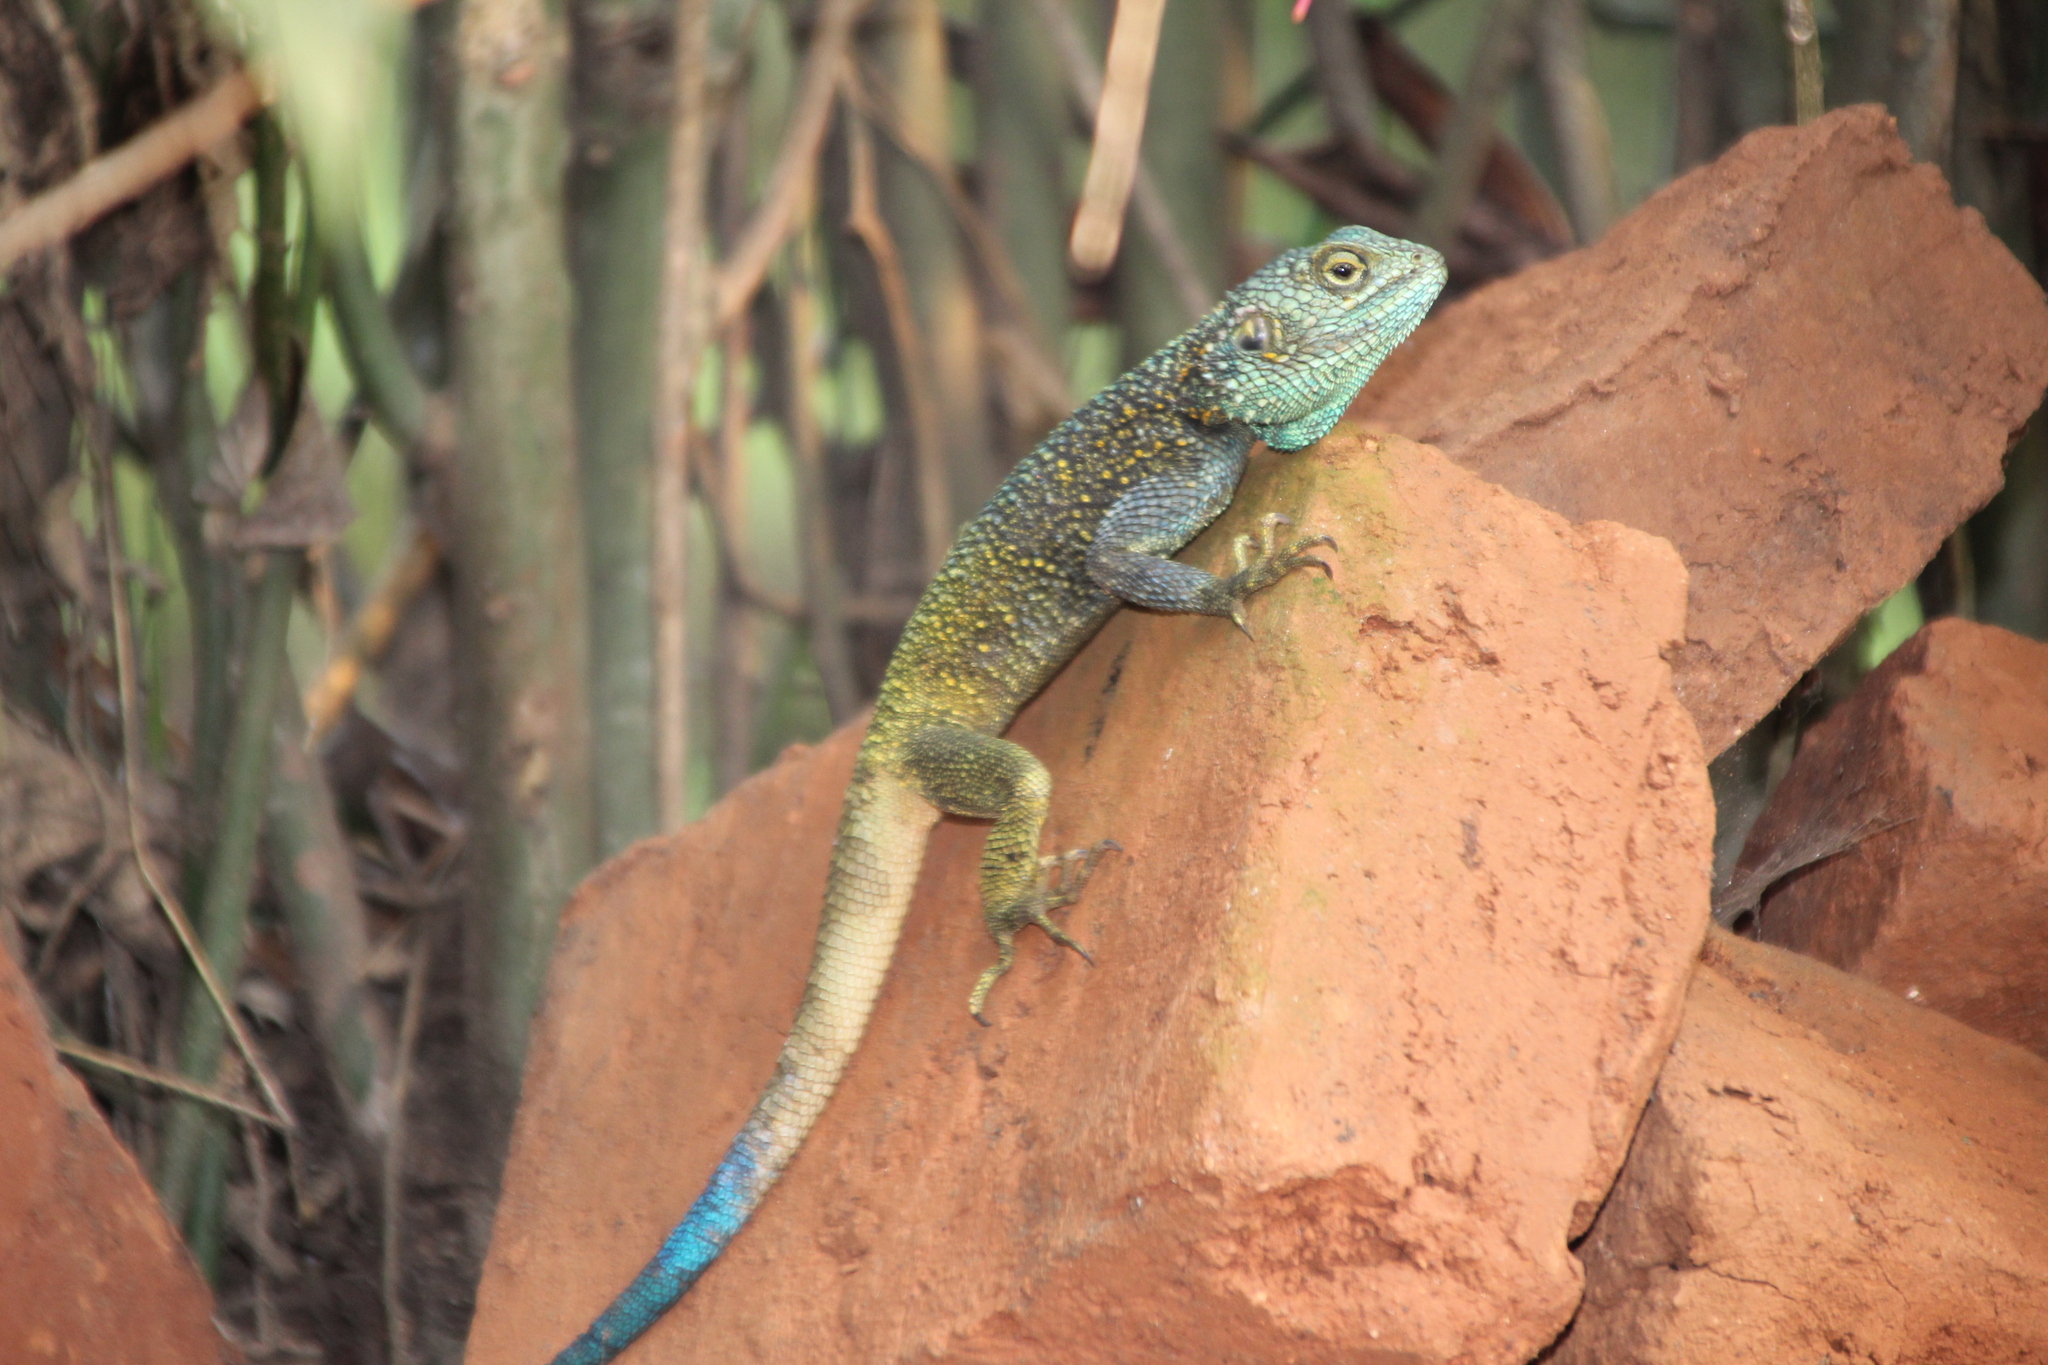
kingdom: Animalia
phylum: Chordata
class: Squamata
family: Agamidae
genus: Acanthocercus
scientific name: Acanthocercus ugandaensis
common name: Uganda blue-headed tree agama
